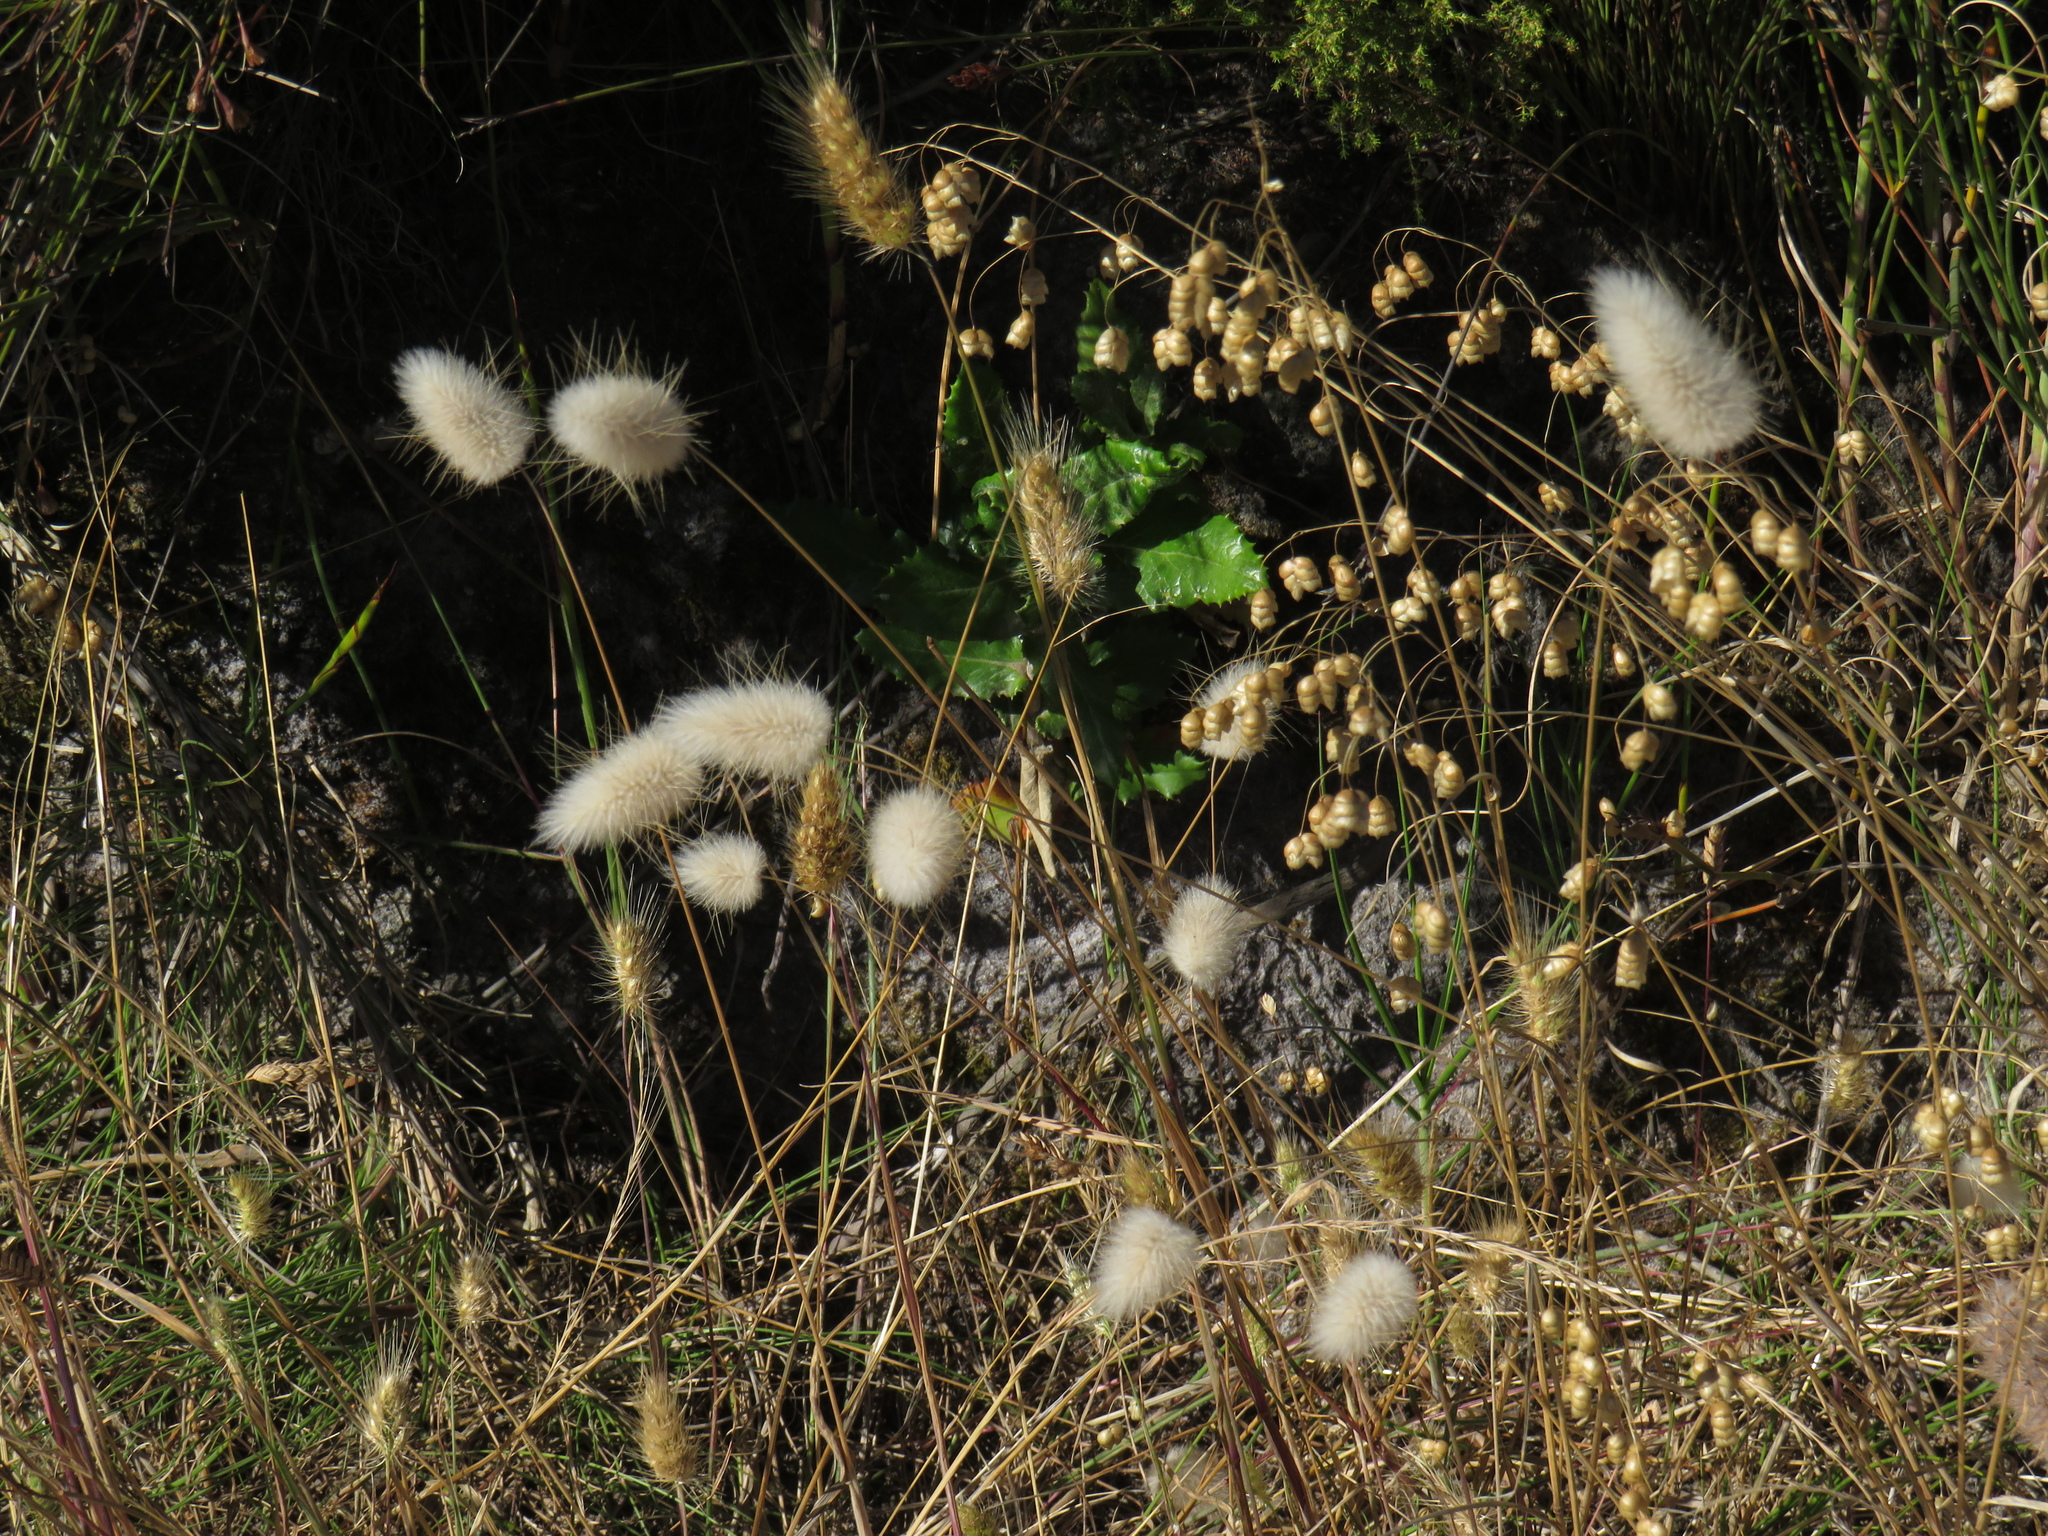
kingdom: Plantae
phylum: Tracheophyta
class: Liliopsida
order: Poales
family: Poaceae
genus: Lagurus
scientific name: Lagurus ovatus
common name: Hare's-tail
